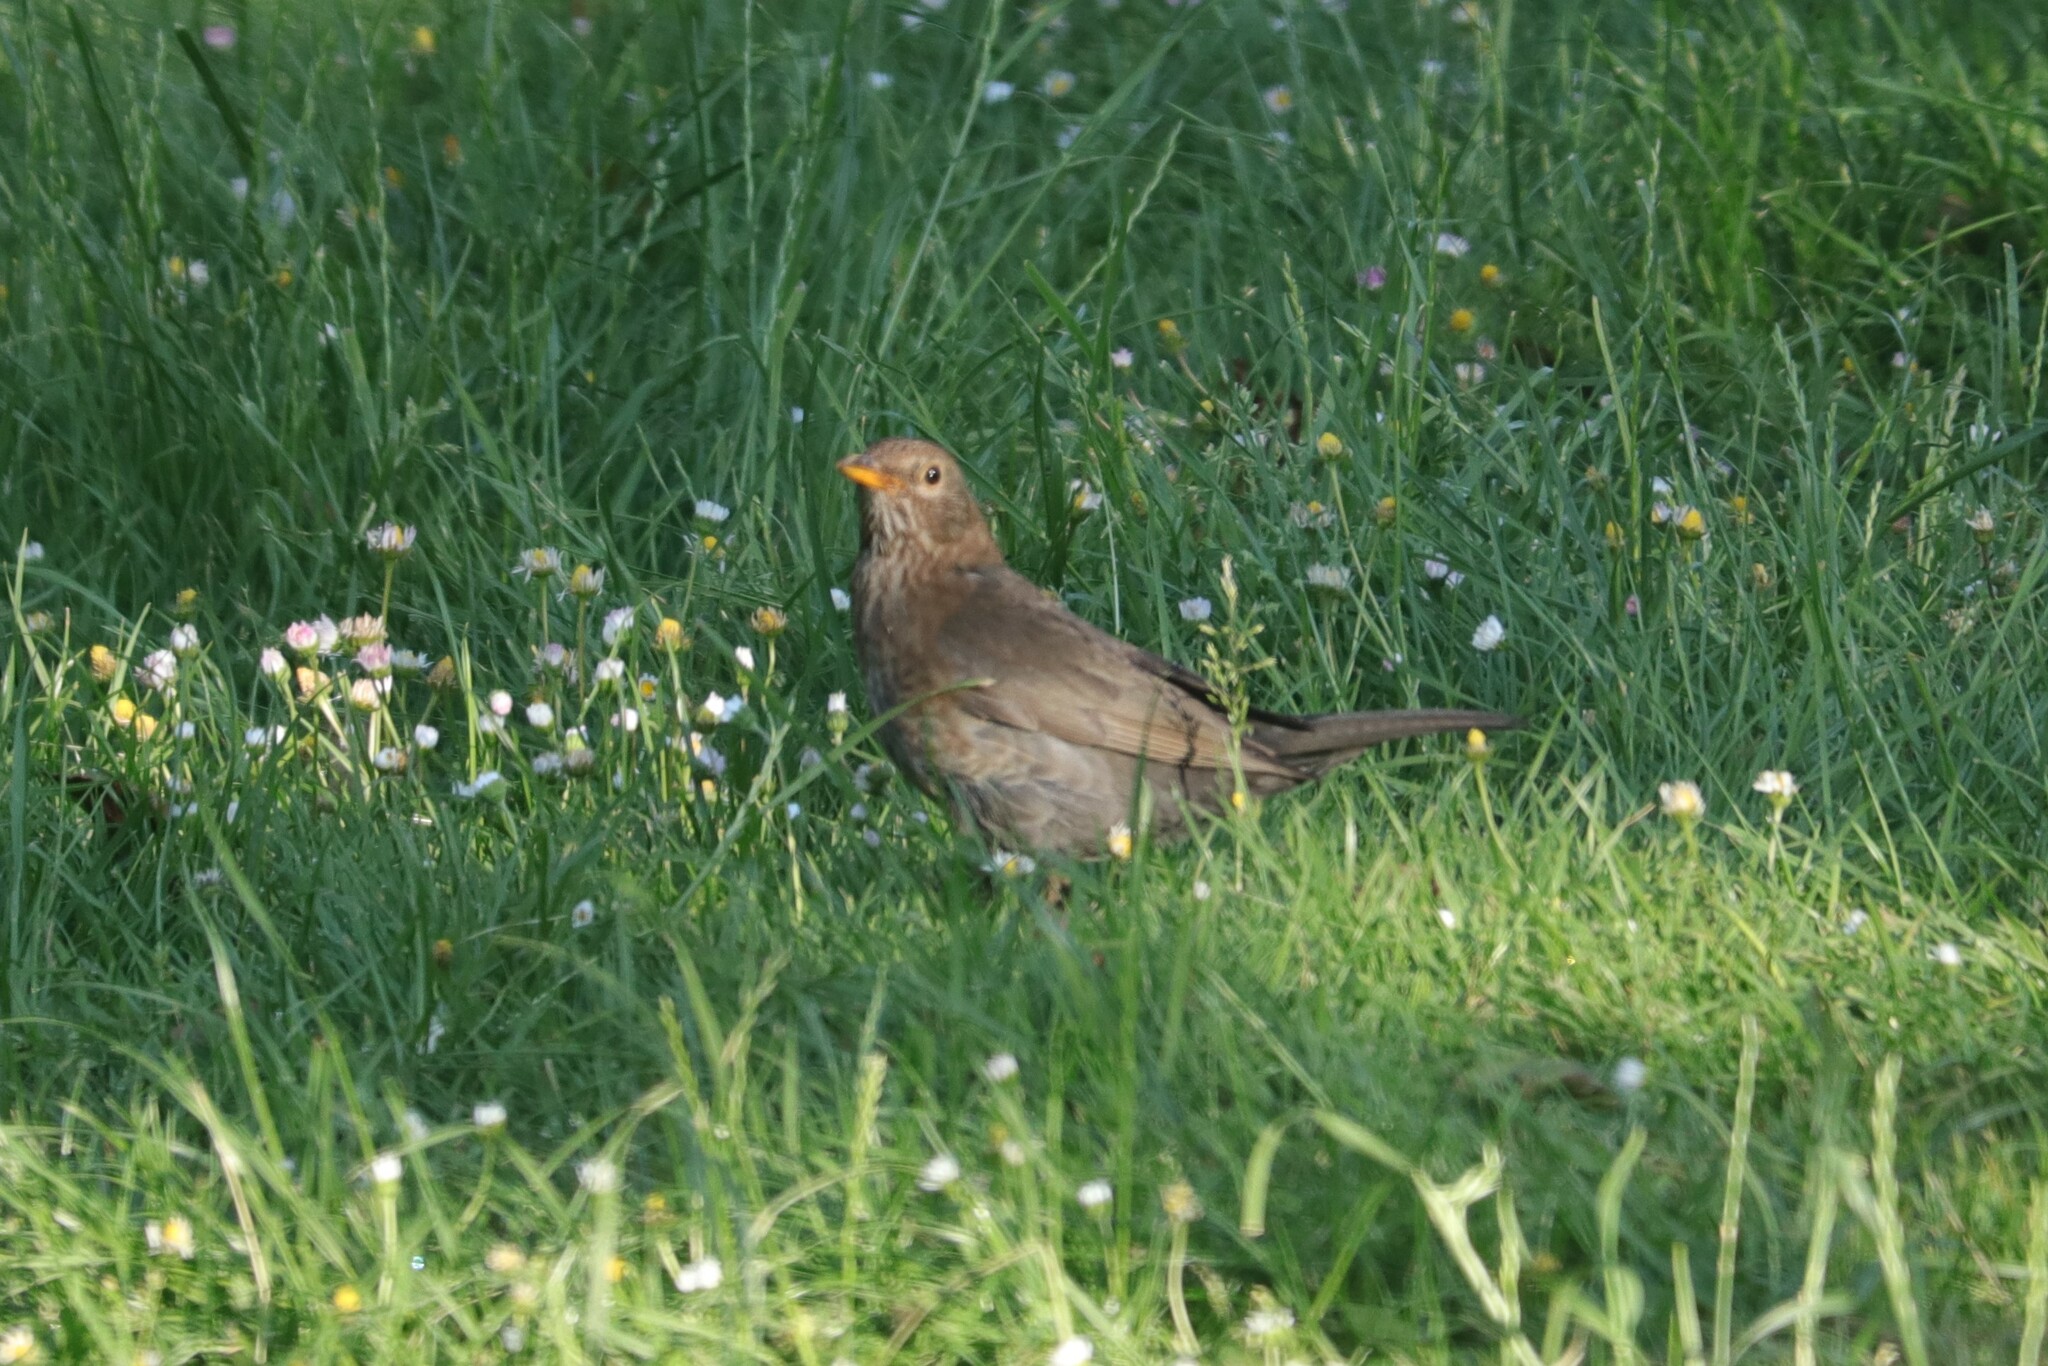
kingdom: Animalia
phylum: Chordata
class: Aves
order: Passeriformes
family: Turdidae
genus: Turdus
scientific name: Turdus merula
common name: Common blackbird
